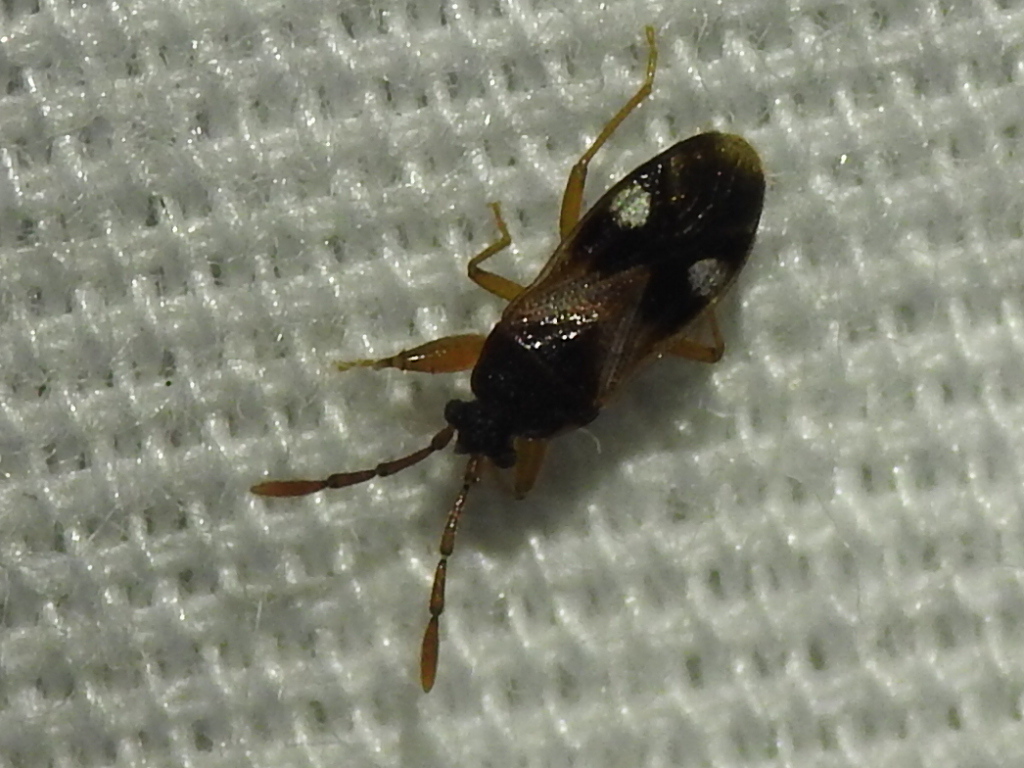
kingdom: Animalia
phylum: Arthropoda
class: Insecta
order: Hemiptera
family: Rhyparochromidae
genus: Tempyra
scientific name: Tempyra biguttula
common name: Seed bug
